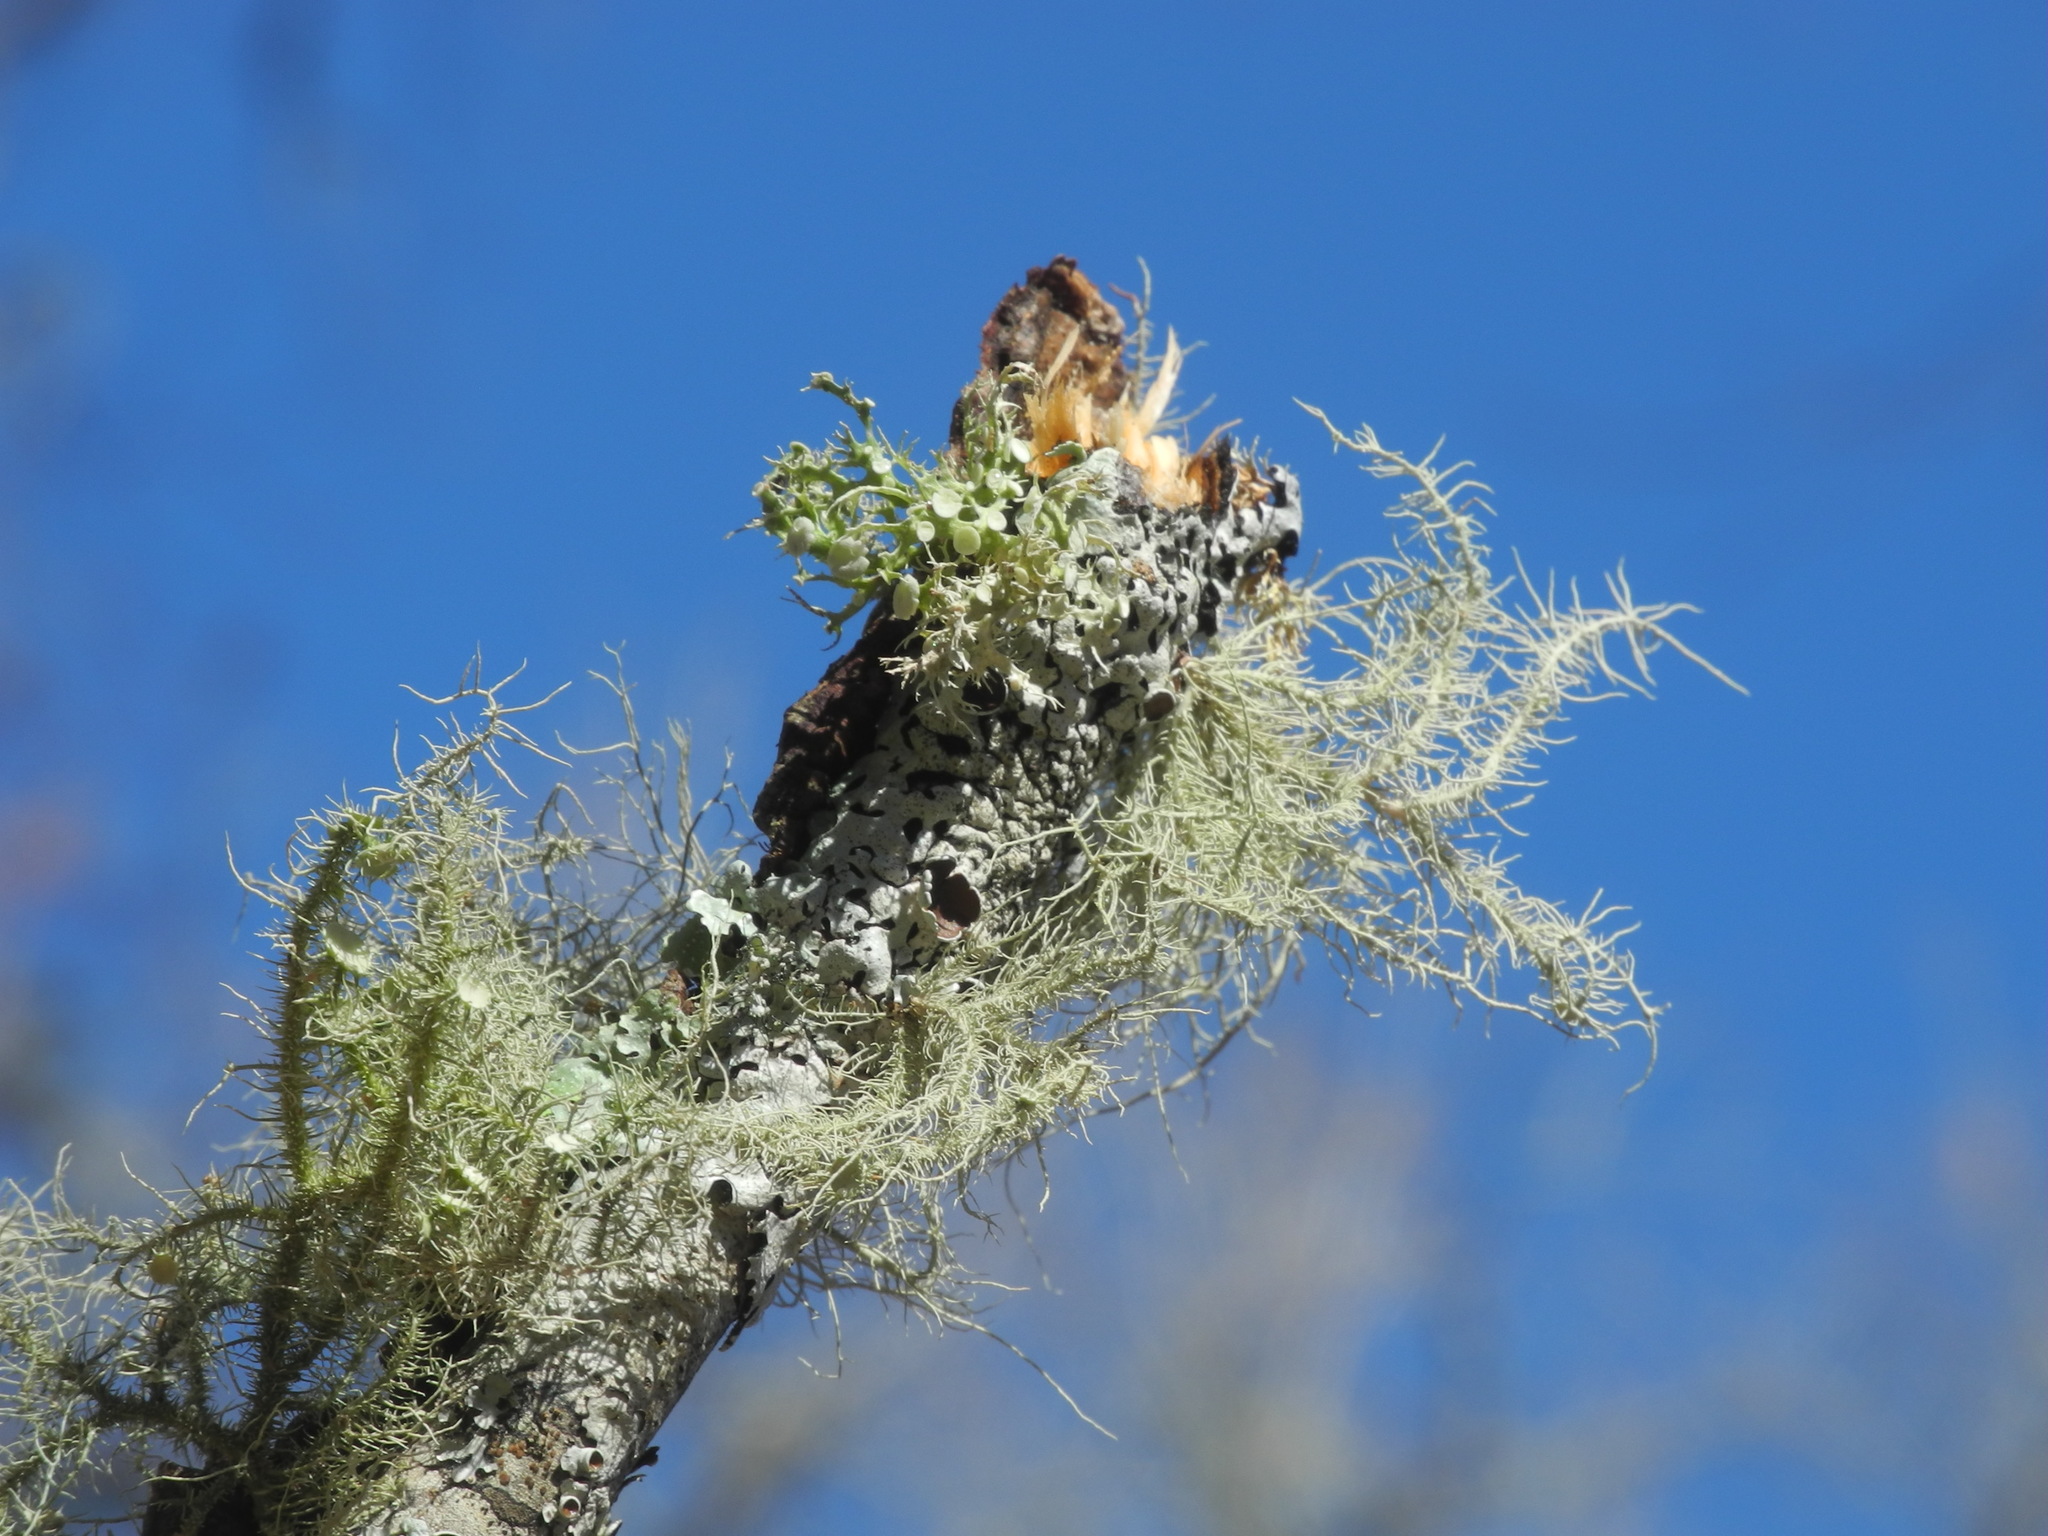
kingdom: Fungi
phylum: Ascomycota
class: Lecanoromycetes
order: Lecanorales
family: Ramalinaceae
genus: Ramalina
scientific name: Ramalina americana
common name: Sinewed bush lichen
